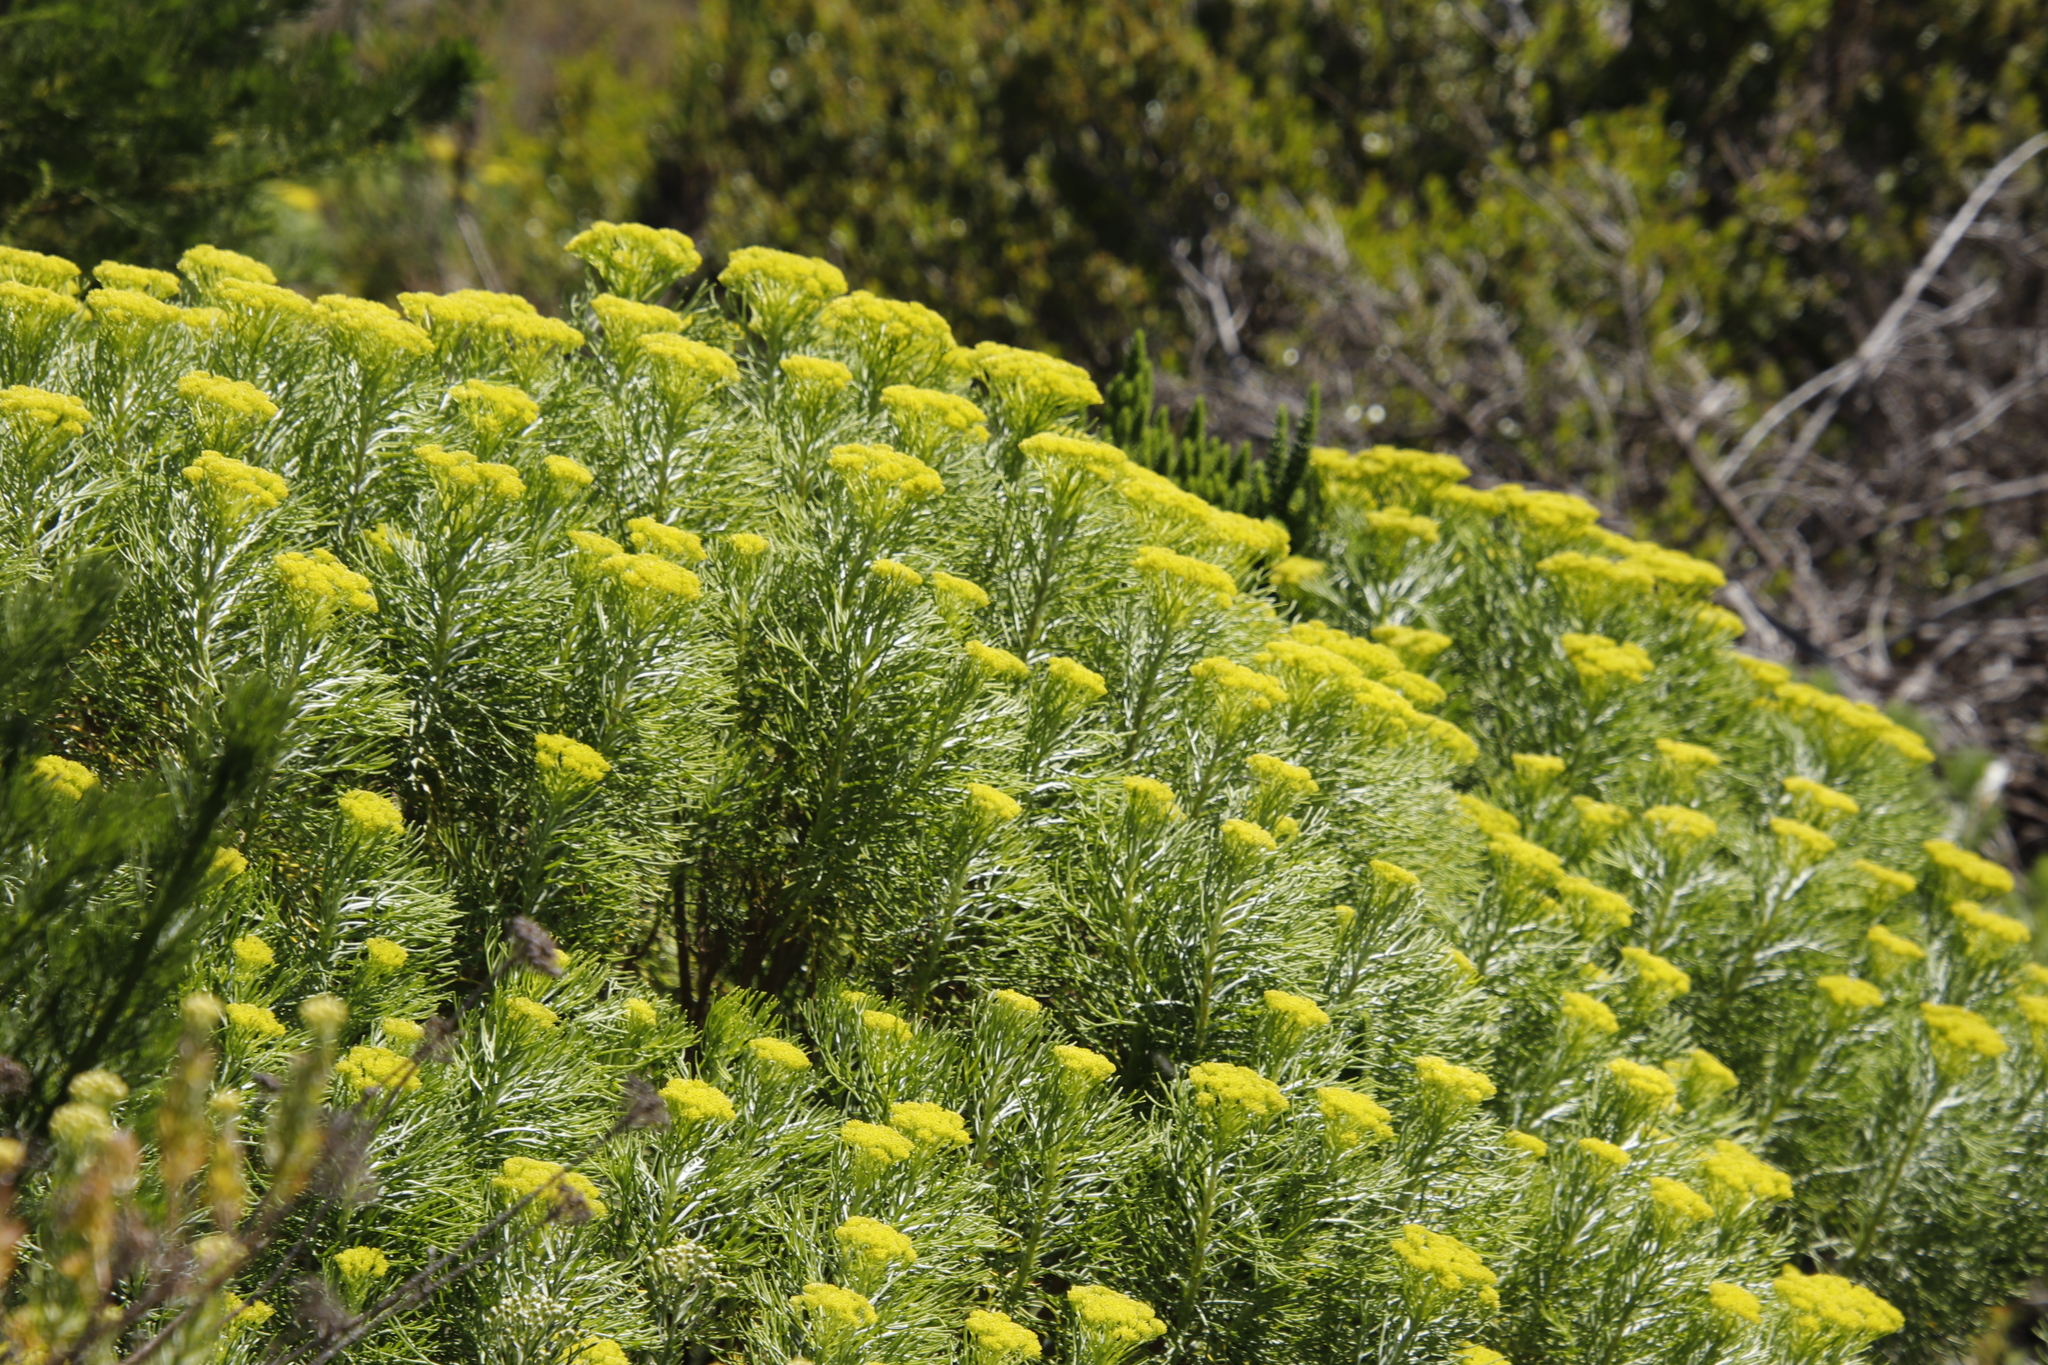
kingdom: Plantae
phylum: Tracheophyta
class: Magnoliopsida
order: Asterales
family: Asteraceae
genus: Hymenolepis
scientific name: Hymenolepis crithmifolia
